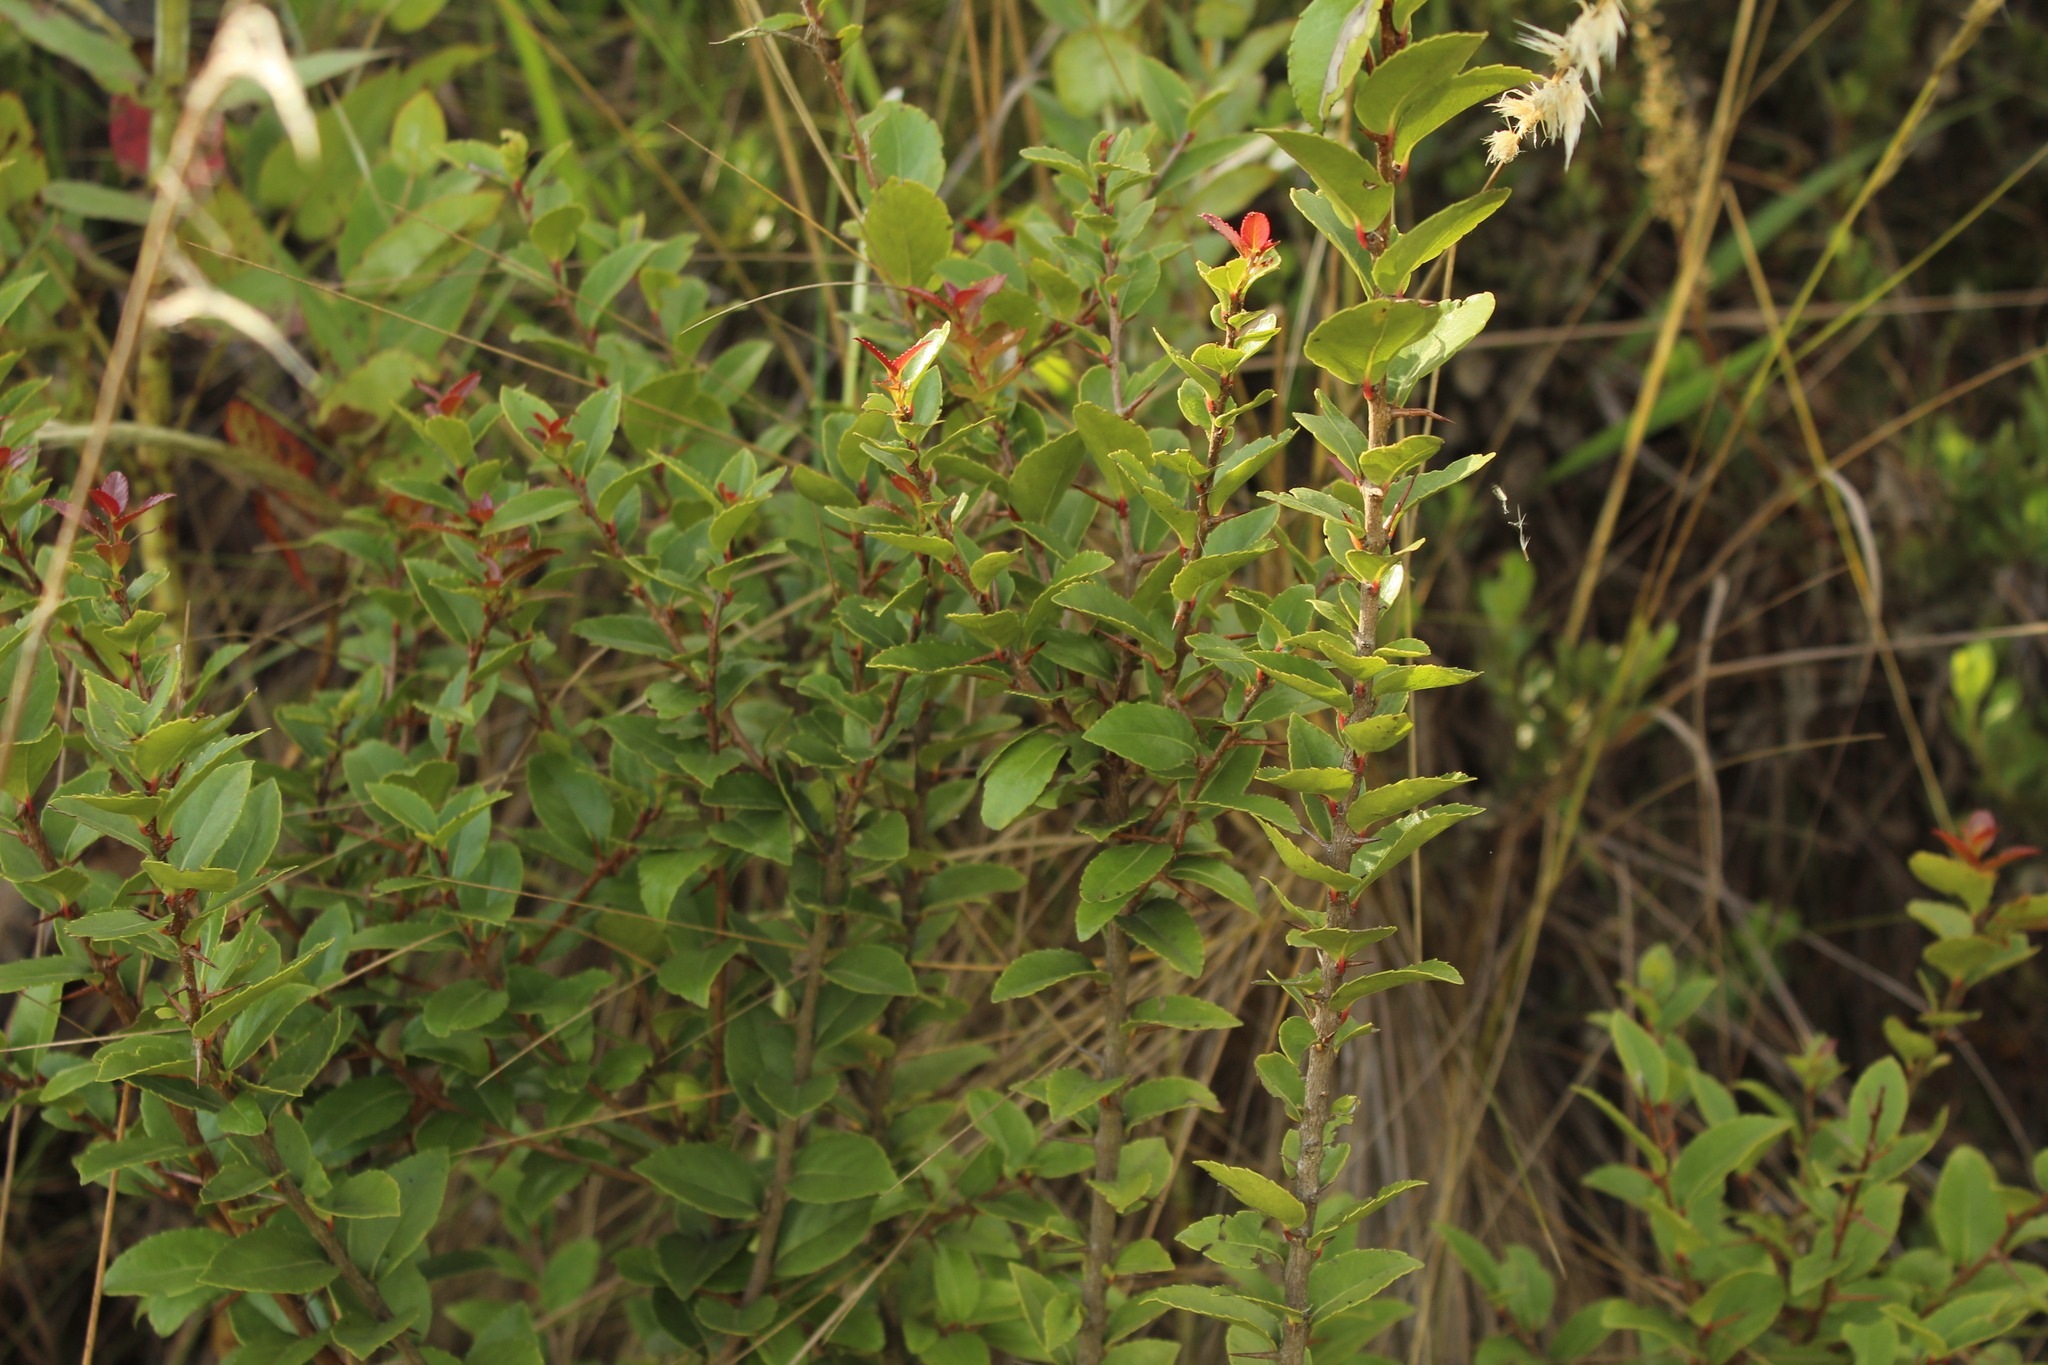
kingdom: Plantae
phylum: Tracheophyta
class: Magnoliopsida
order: Malpighiales
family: Salicaceae
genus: Xylosma
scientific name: Xylosma spiculifera
